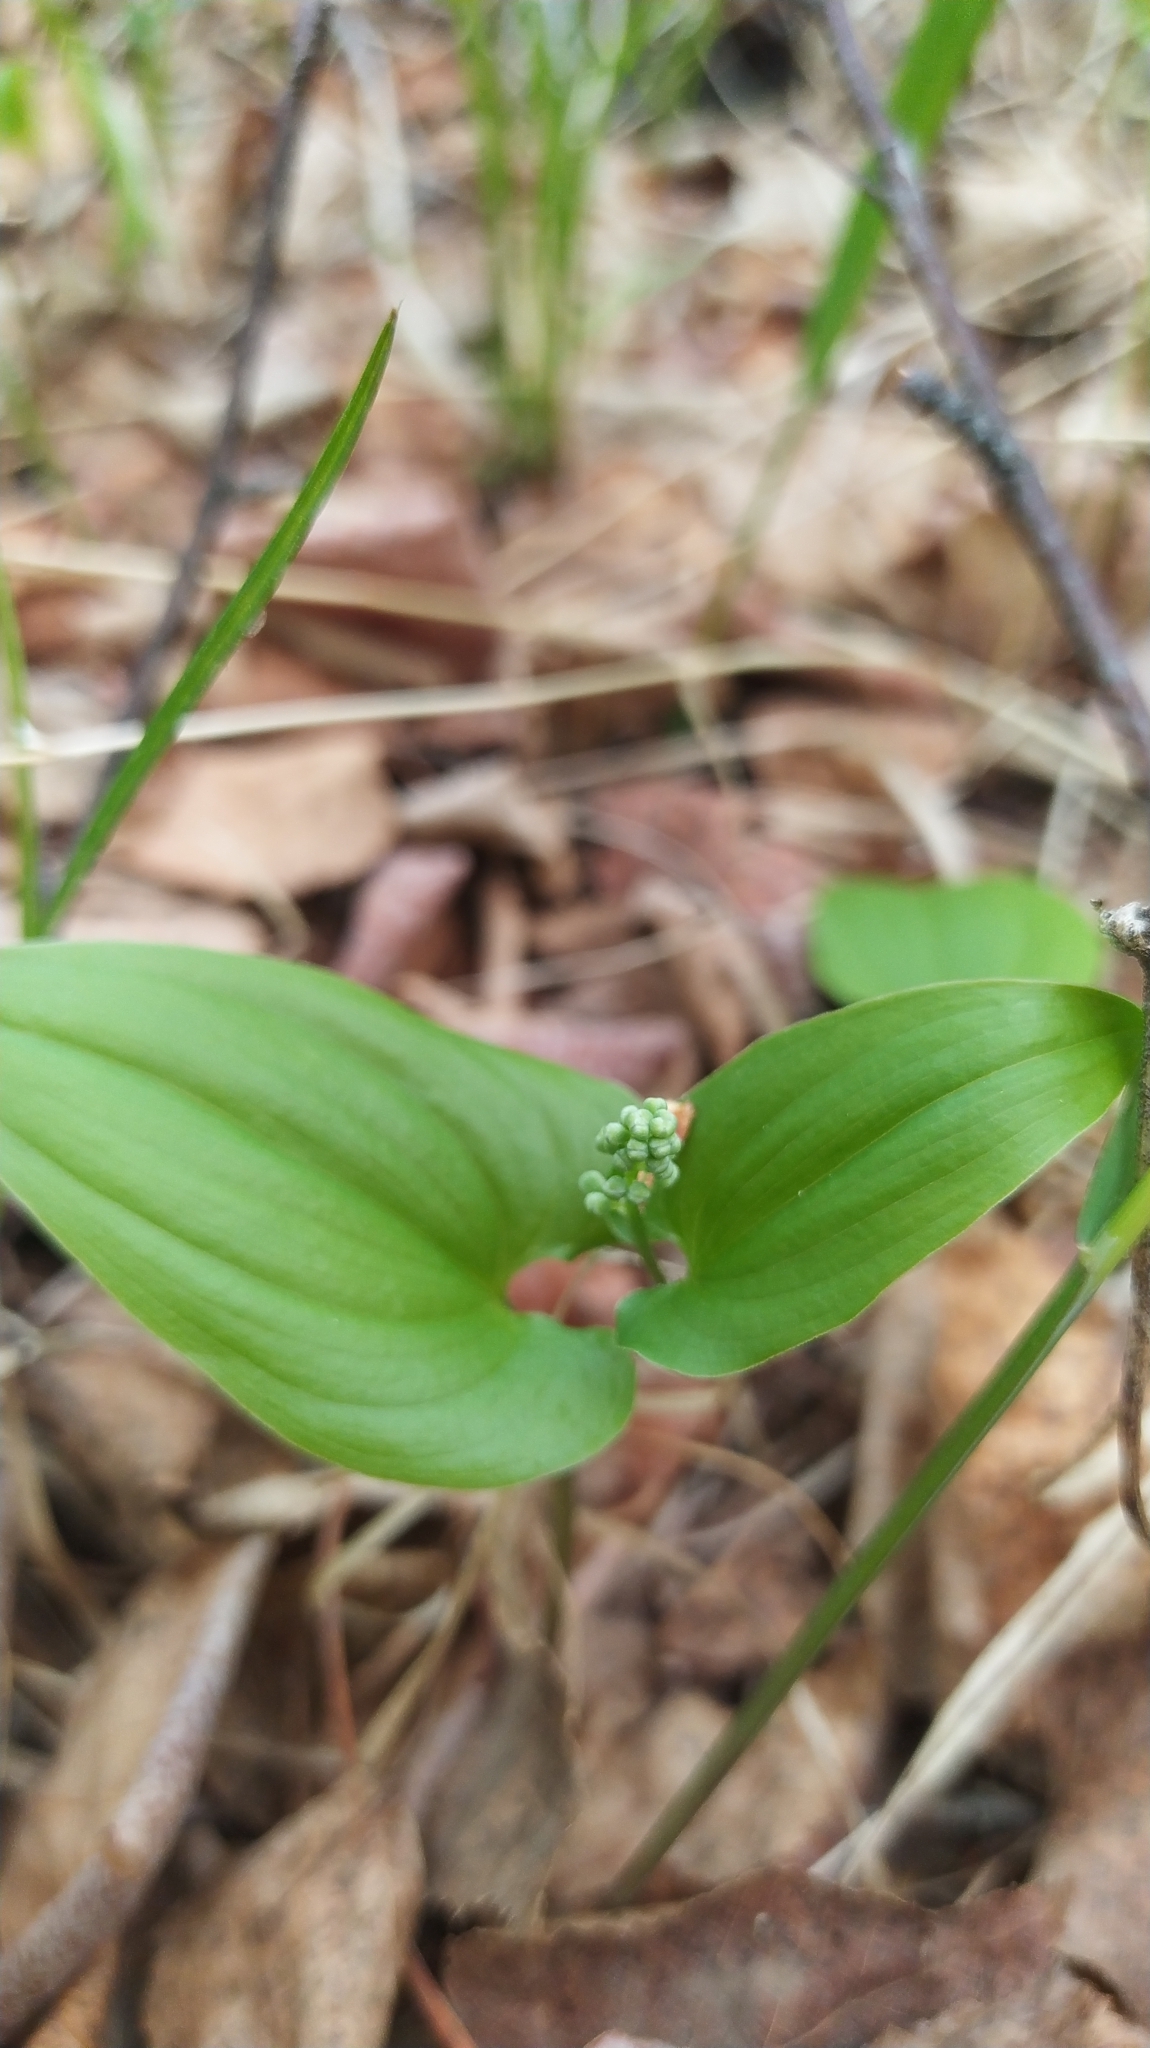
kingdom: Plantae
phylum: Tracheophyta
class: Liliopsida
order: Asparagales
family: Asparagaceae
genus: Maianthemum
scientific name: Maianthemum bifolium
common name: May lily
